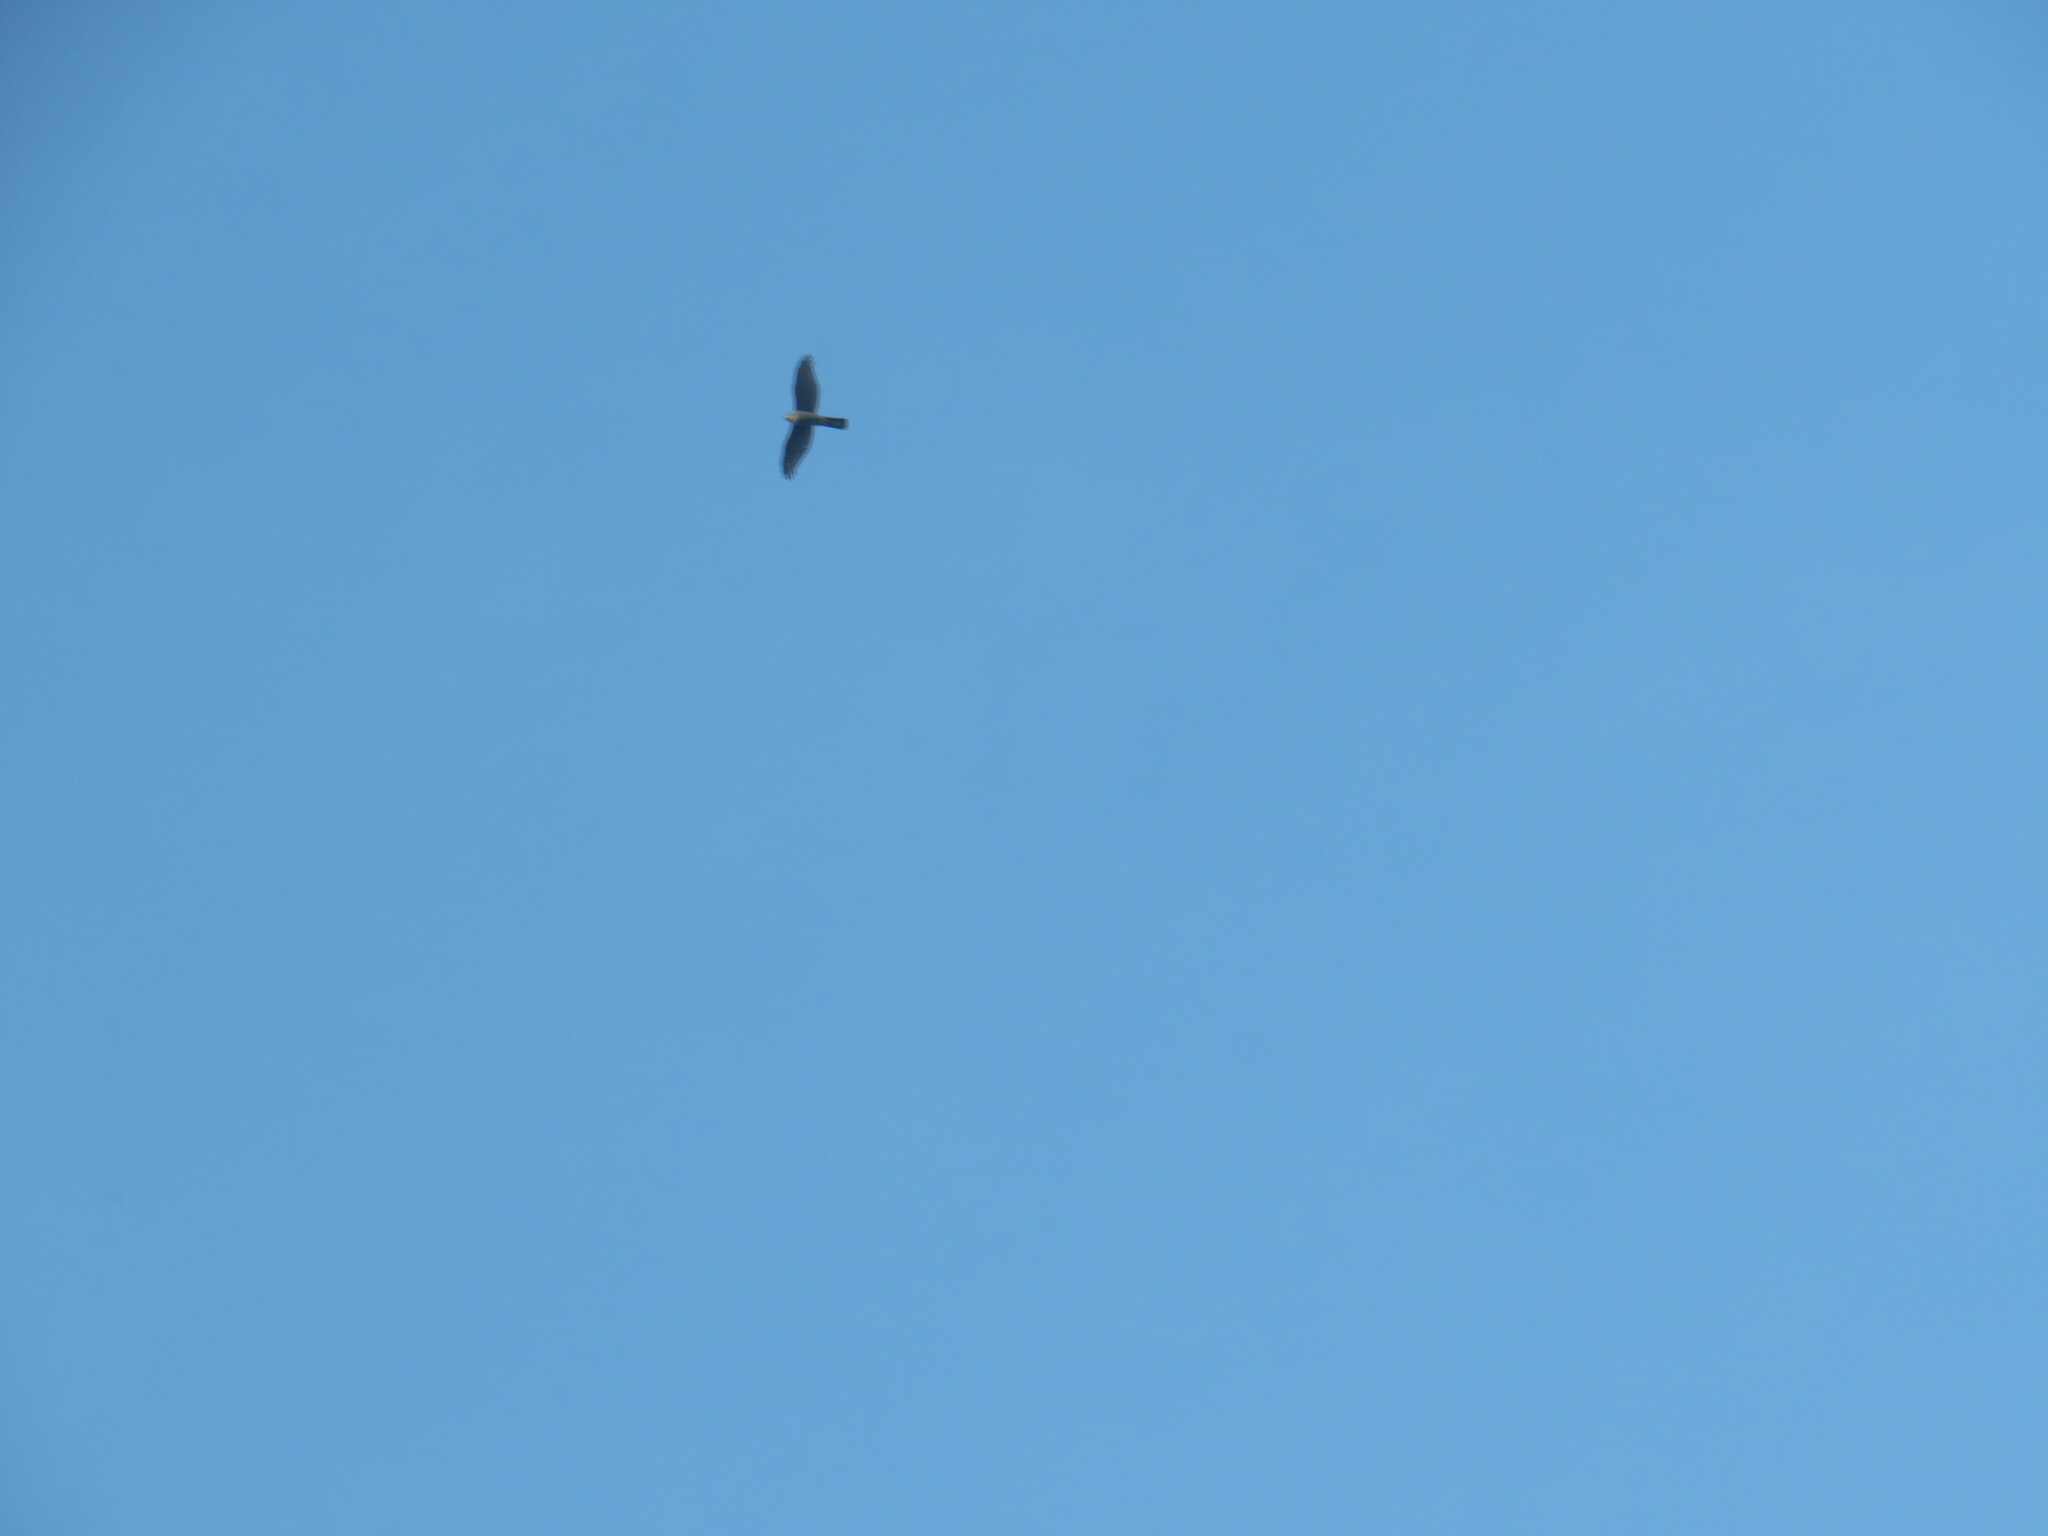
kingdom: Animalia
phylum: Chordata
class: Aves
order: Accipitriformes
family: Accipitridae
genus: Accipiter
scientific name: Accipiter nisus
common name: Eurasian sparrowhawk
